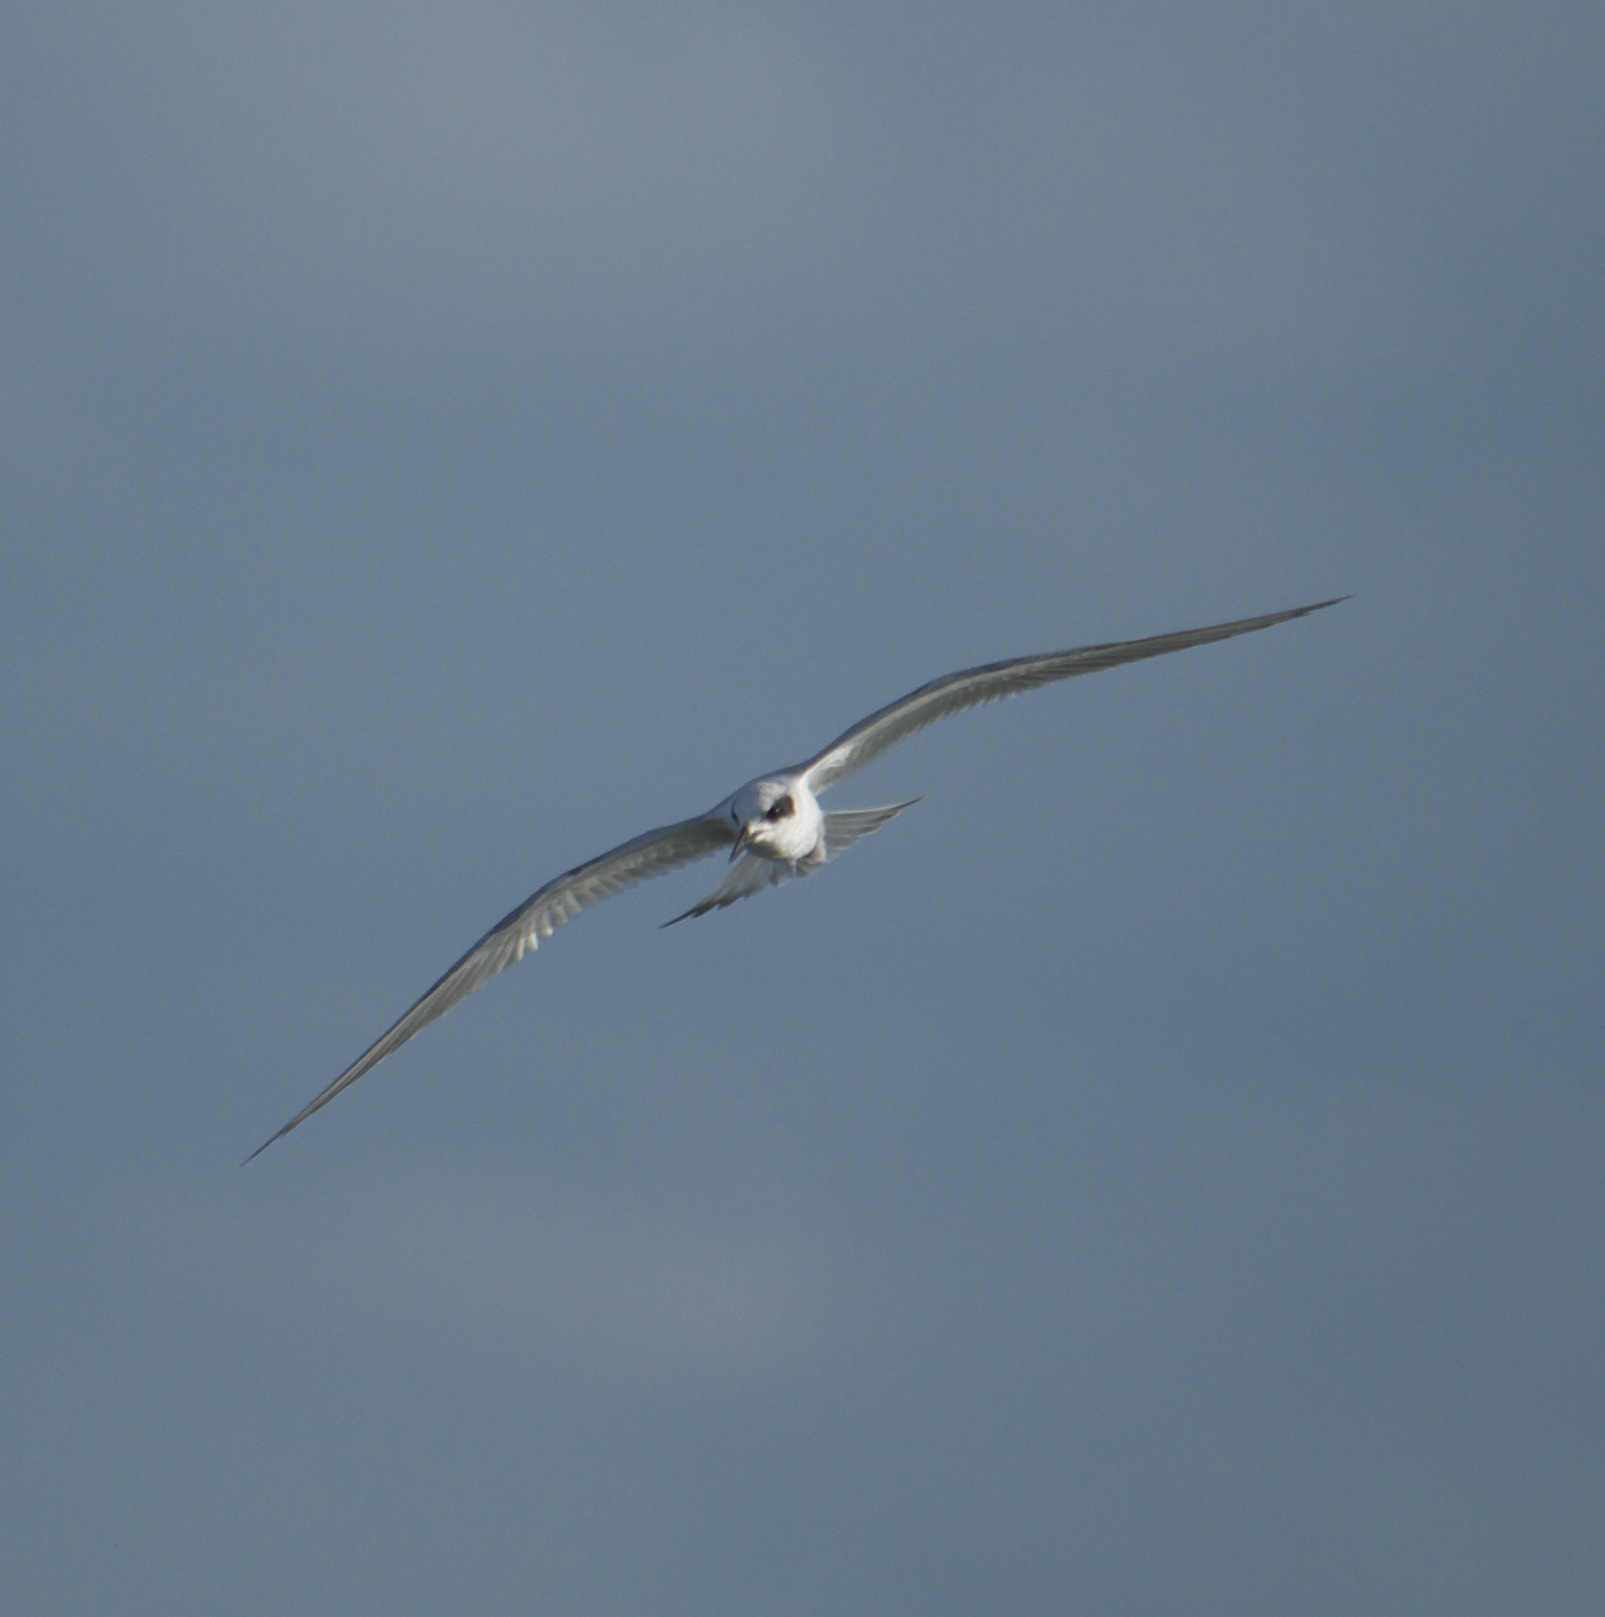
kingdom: Animalia
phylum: Chordata
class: Aves
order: Charadriiformes
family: Laridae
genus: Sterna
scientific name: Sterna forsteri
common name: Forster's tern
